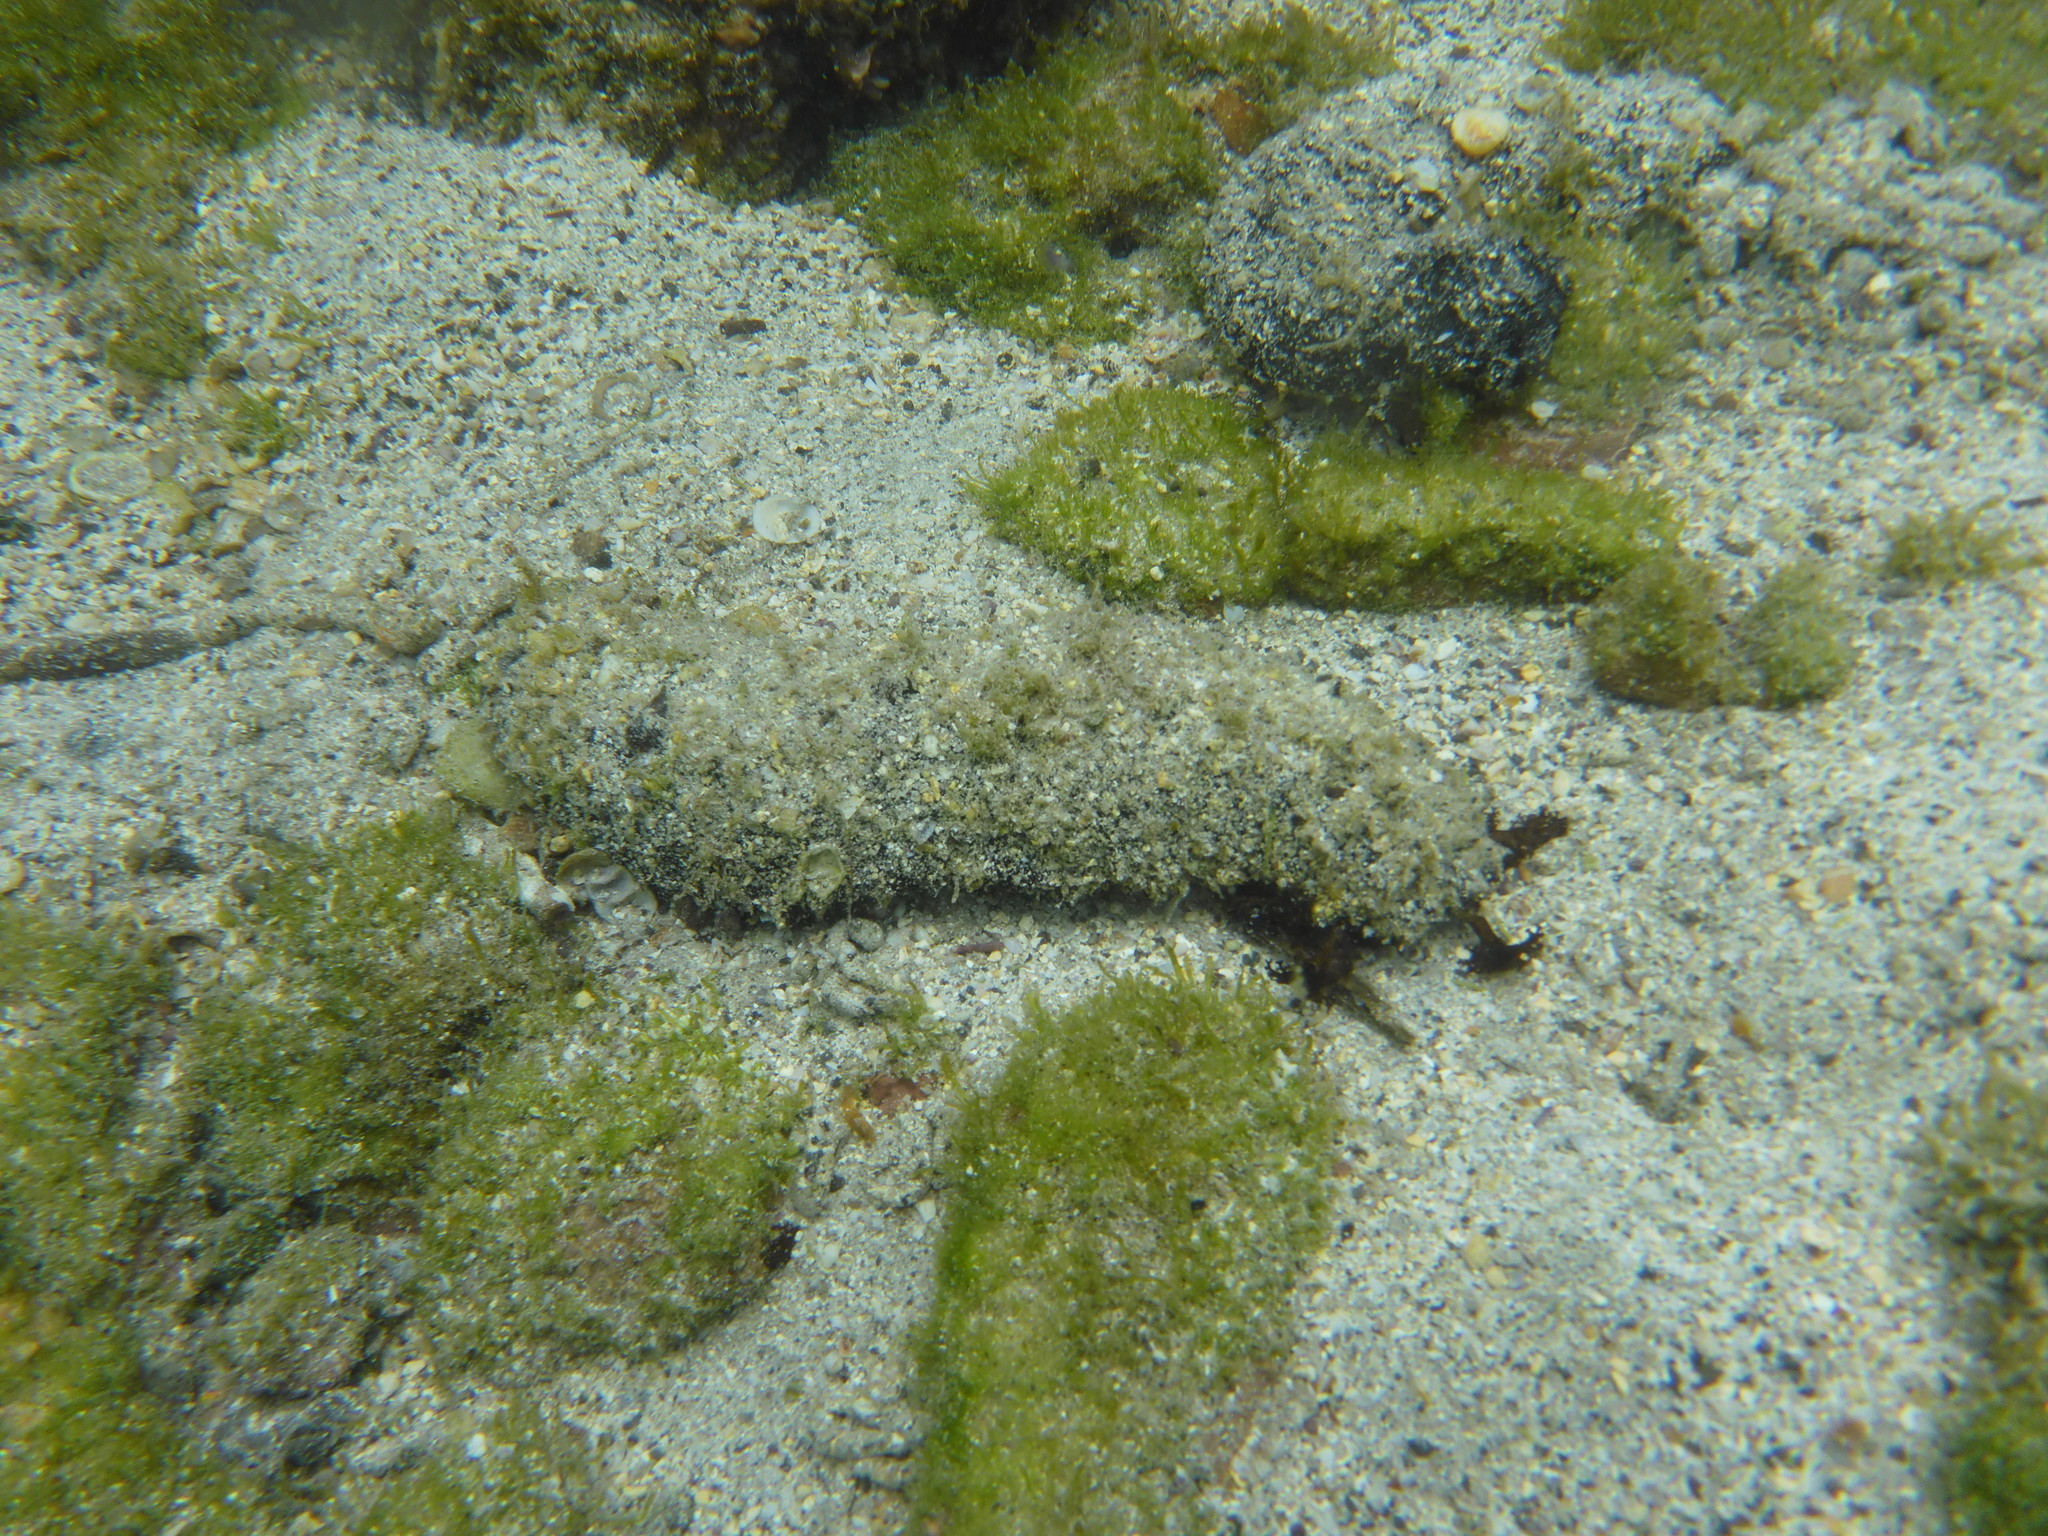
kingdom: Animalia
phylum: Echinodermata
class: Holothuroidea
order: Holothuriida
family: Holothuriidae
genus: Holothuria
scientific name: Holothuria inornata
